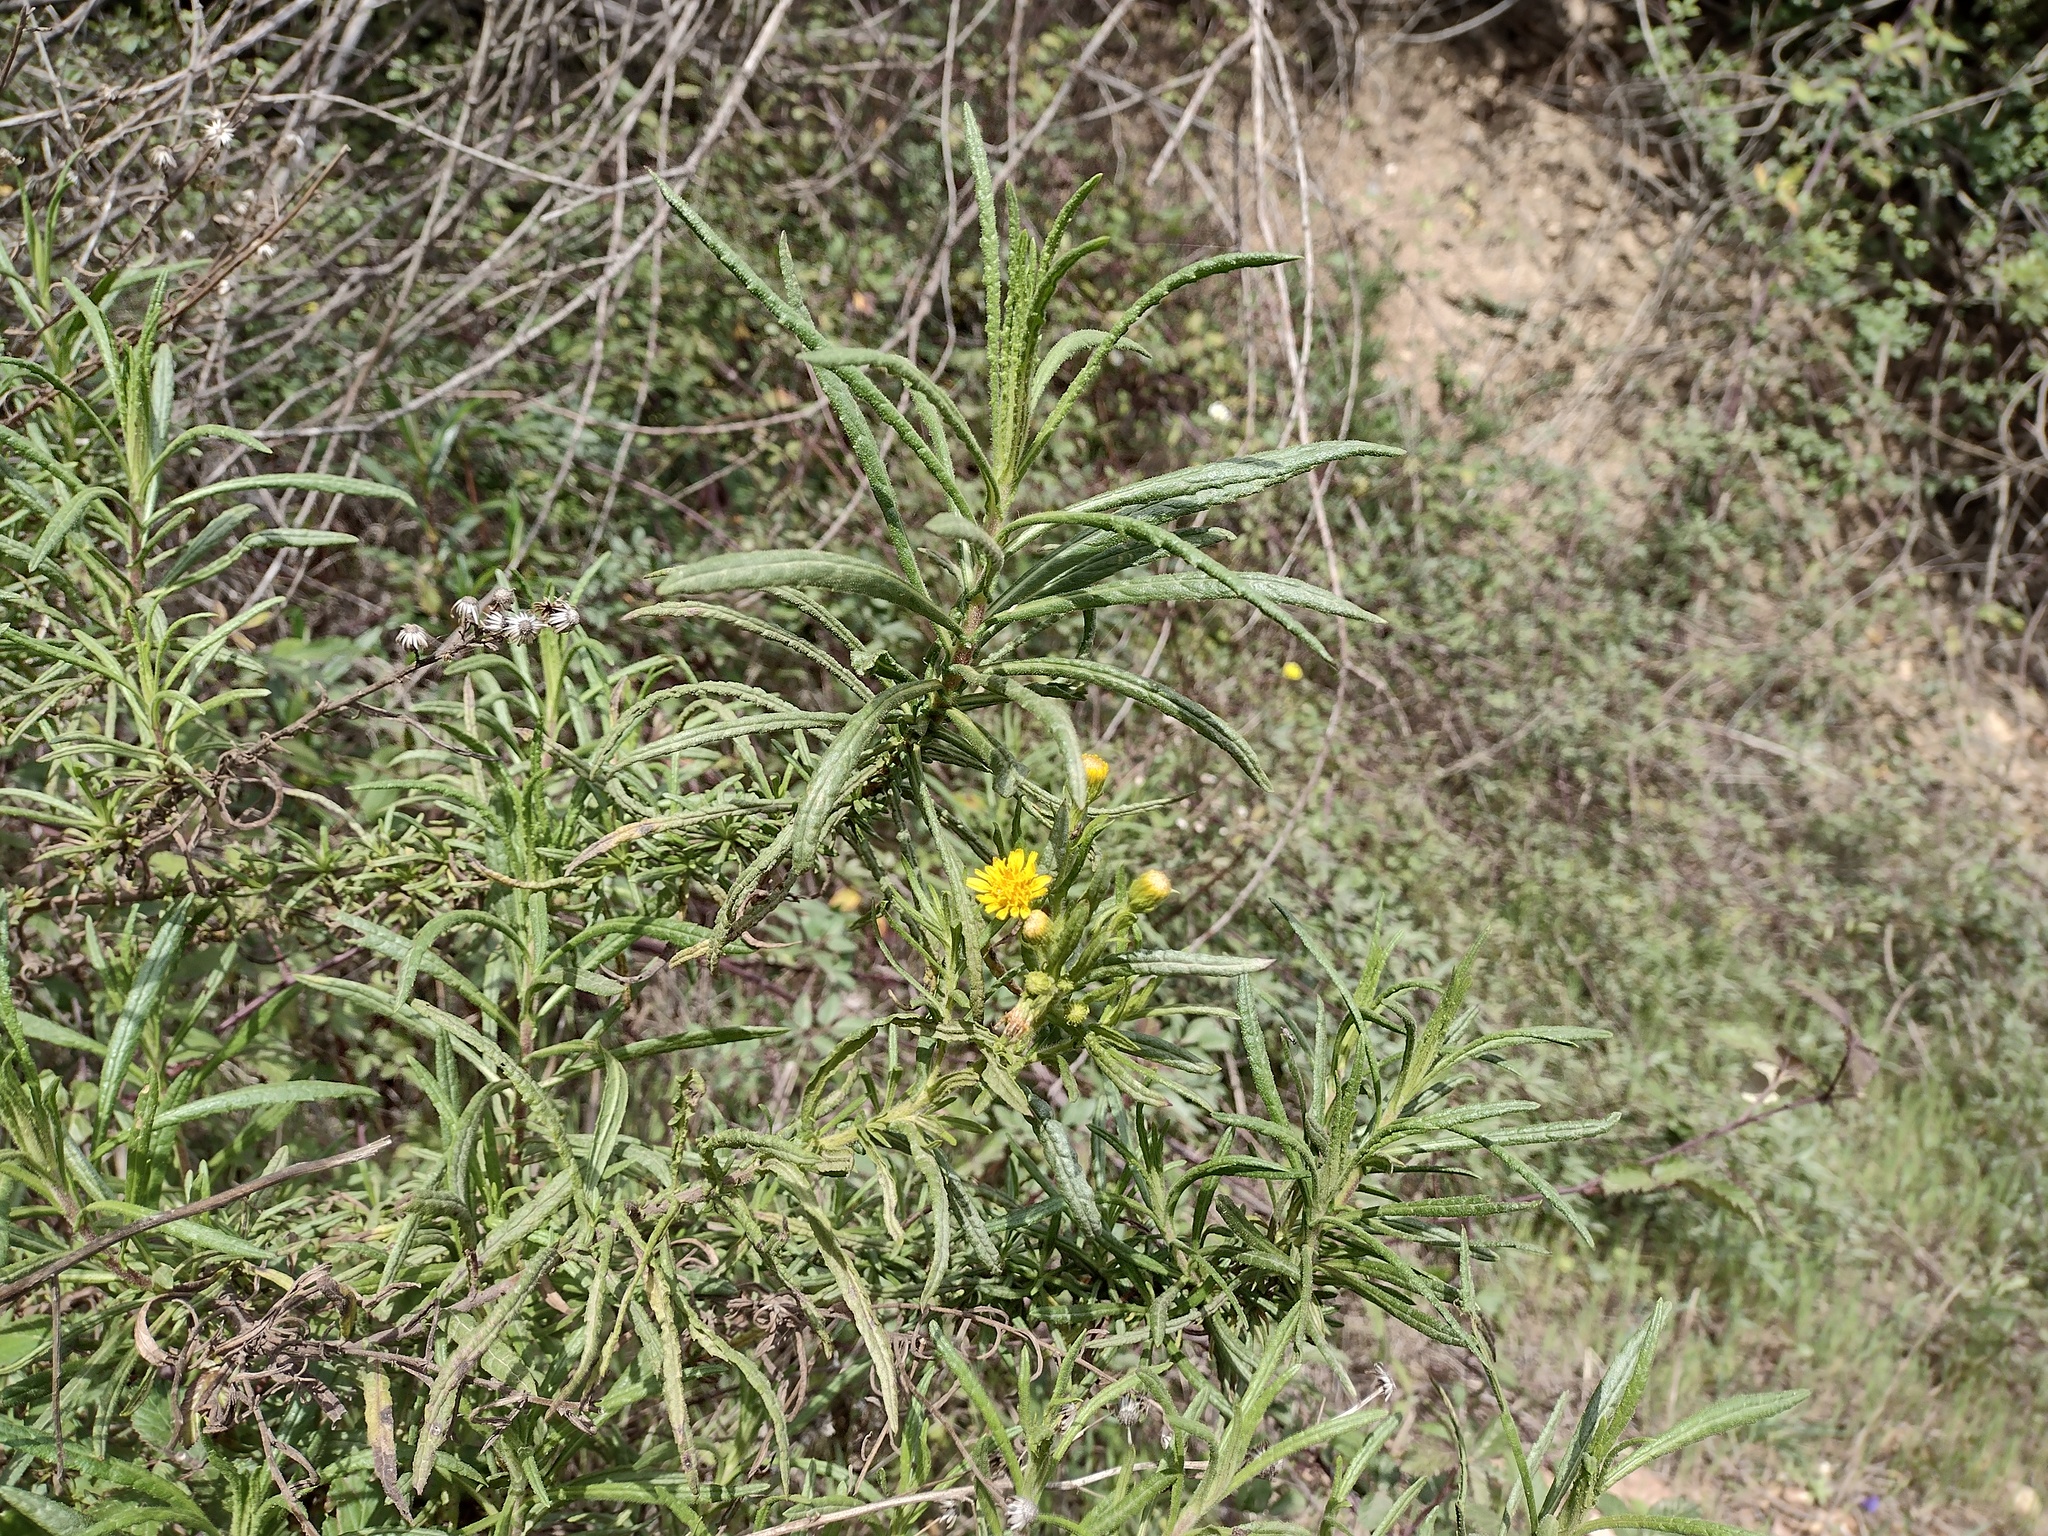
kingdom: Plantae
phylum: Tracheophyta
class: Magnoliopsida
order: Asterales
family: Asteraceae
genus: Dittrichia
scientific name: Dittrichia viscosa
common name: Woody fleabane
